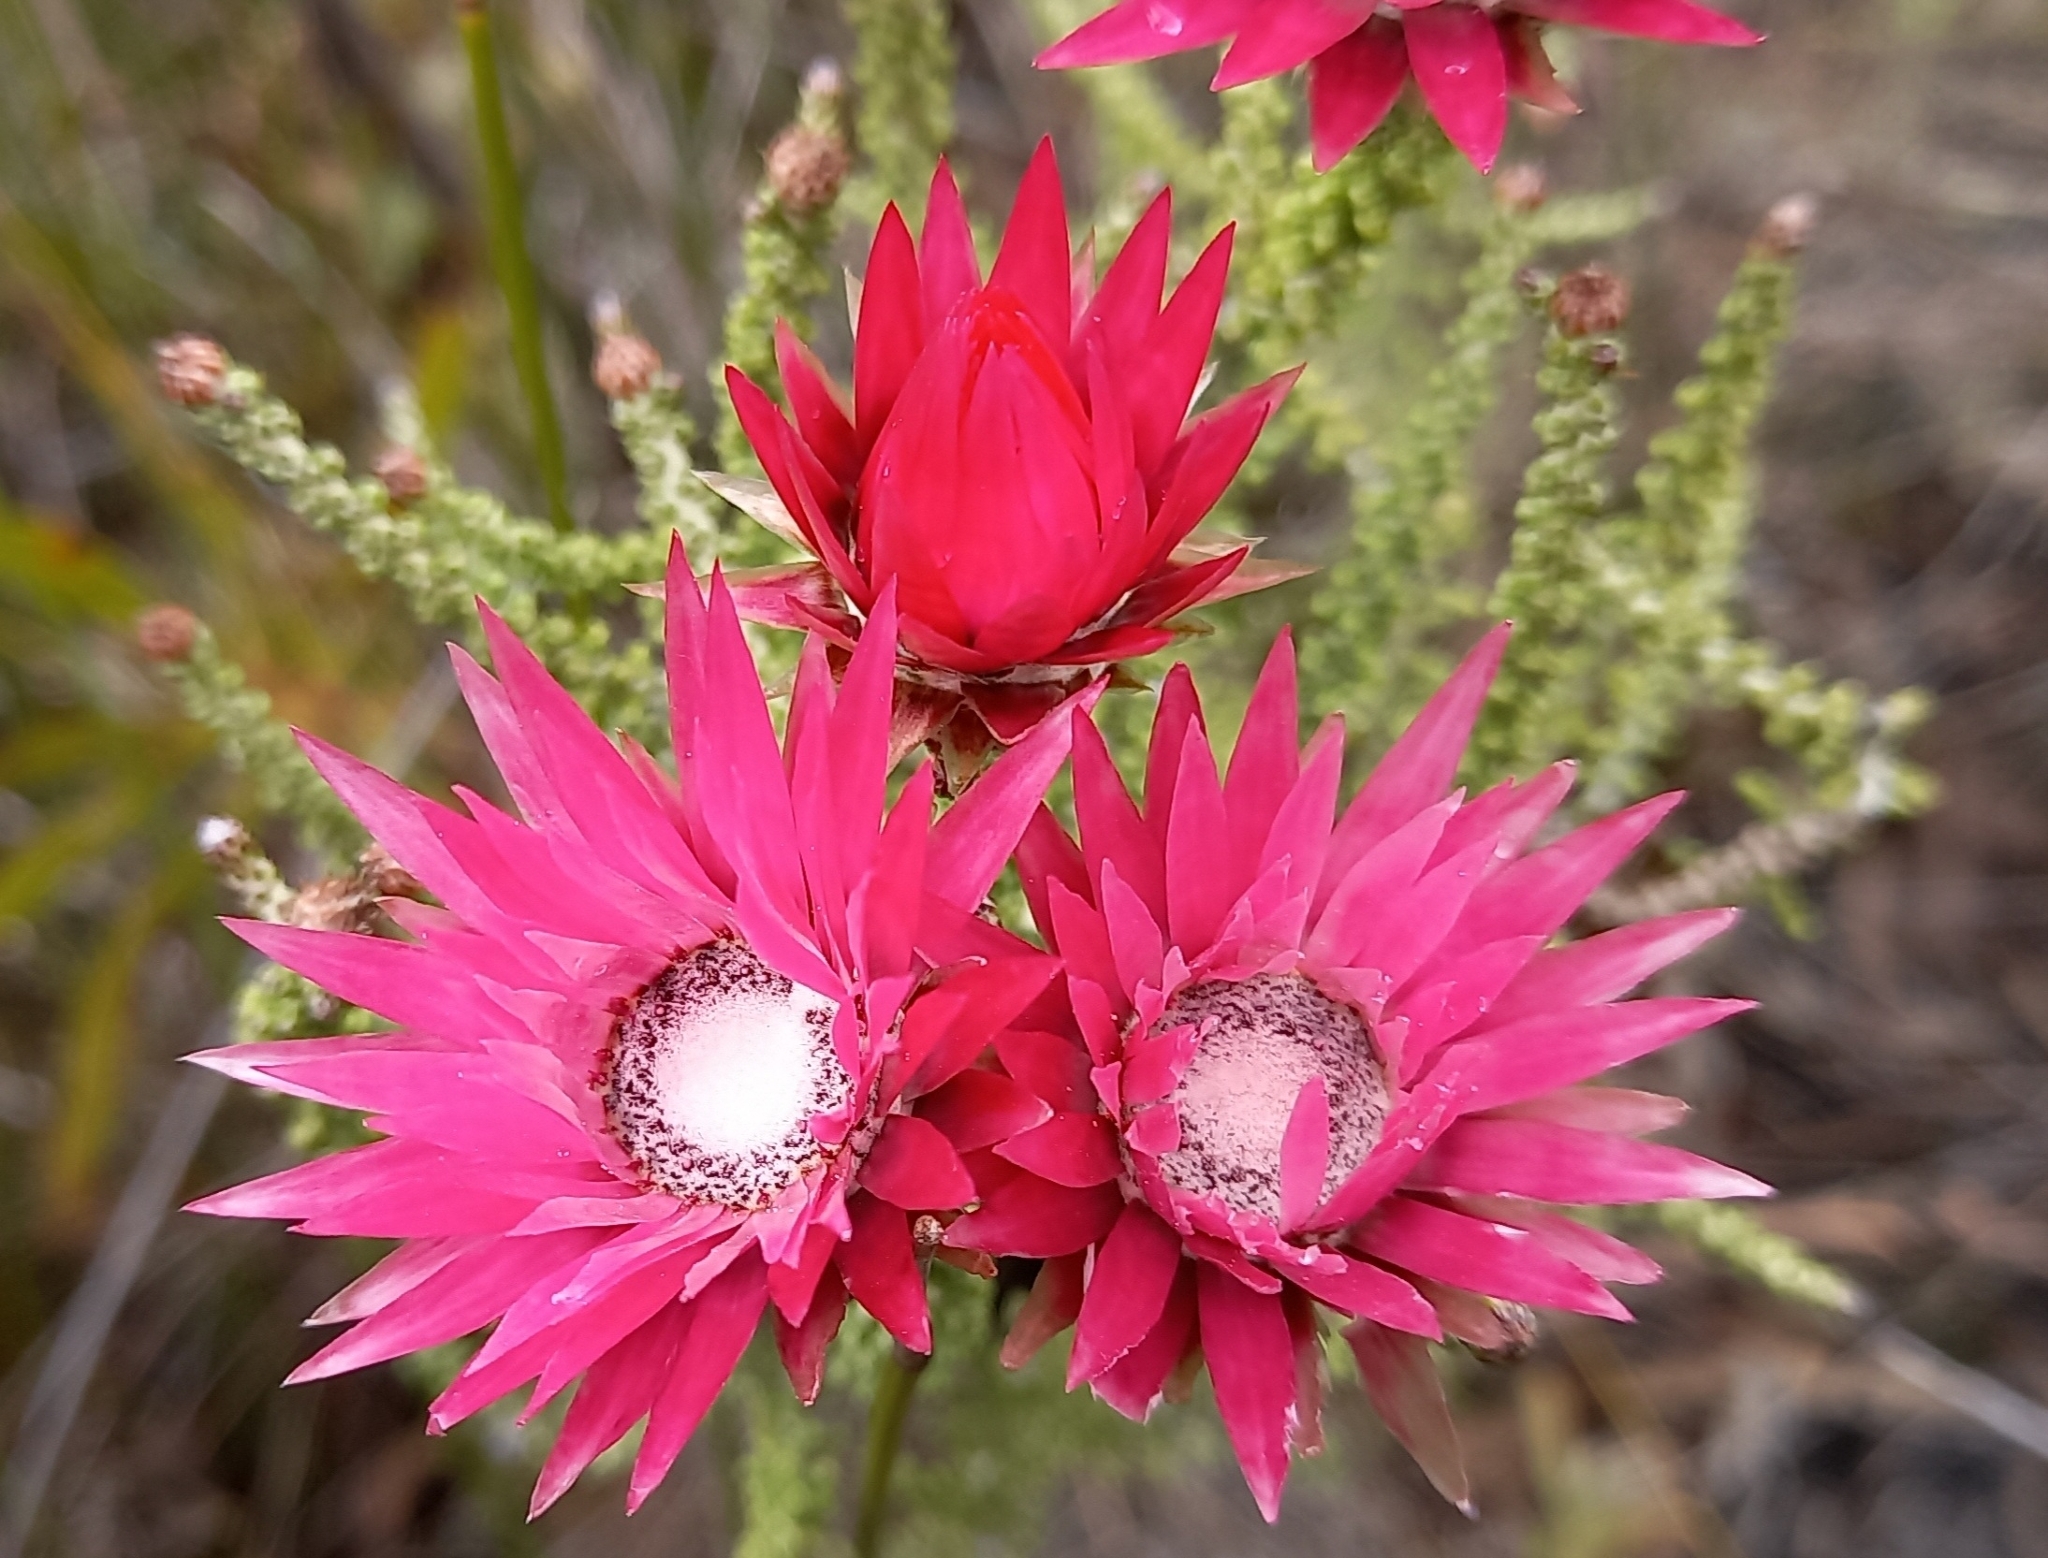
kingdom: Plantae
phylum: Tracheophyta
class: Magnoliopsida
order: Asterales
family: Asteraceae
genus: Phaenocoma
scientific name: Phaenocoma prolifera
